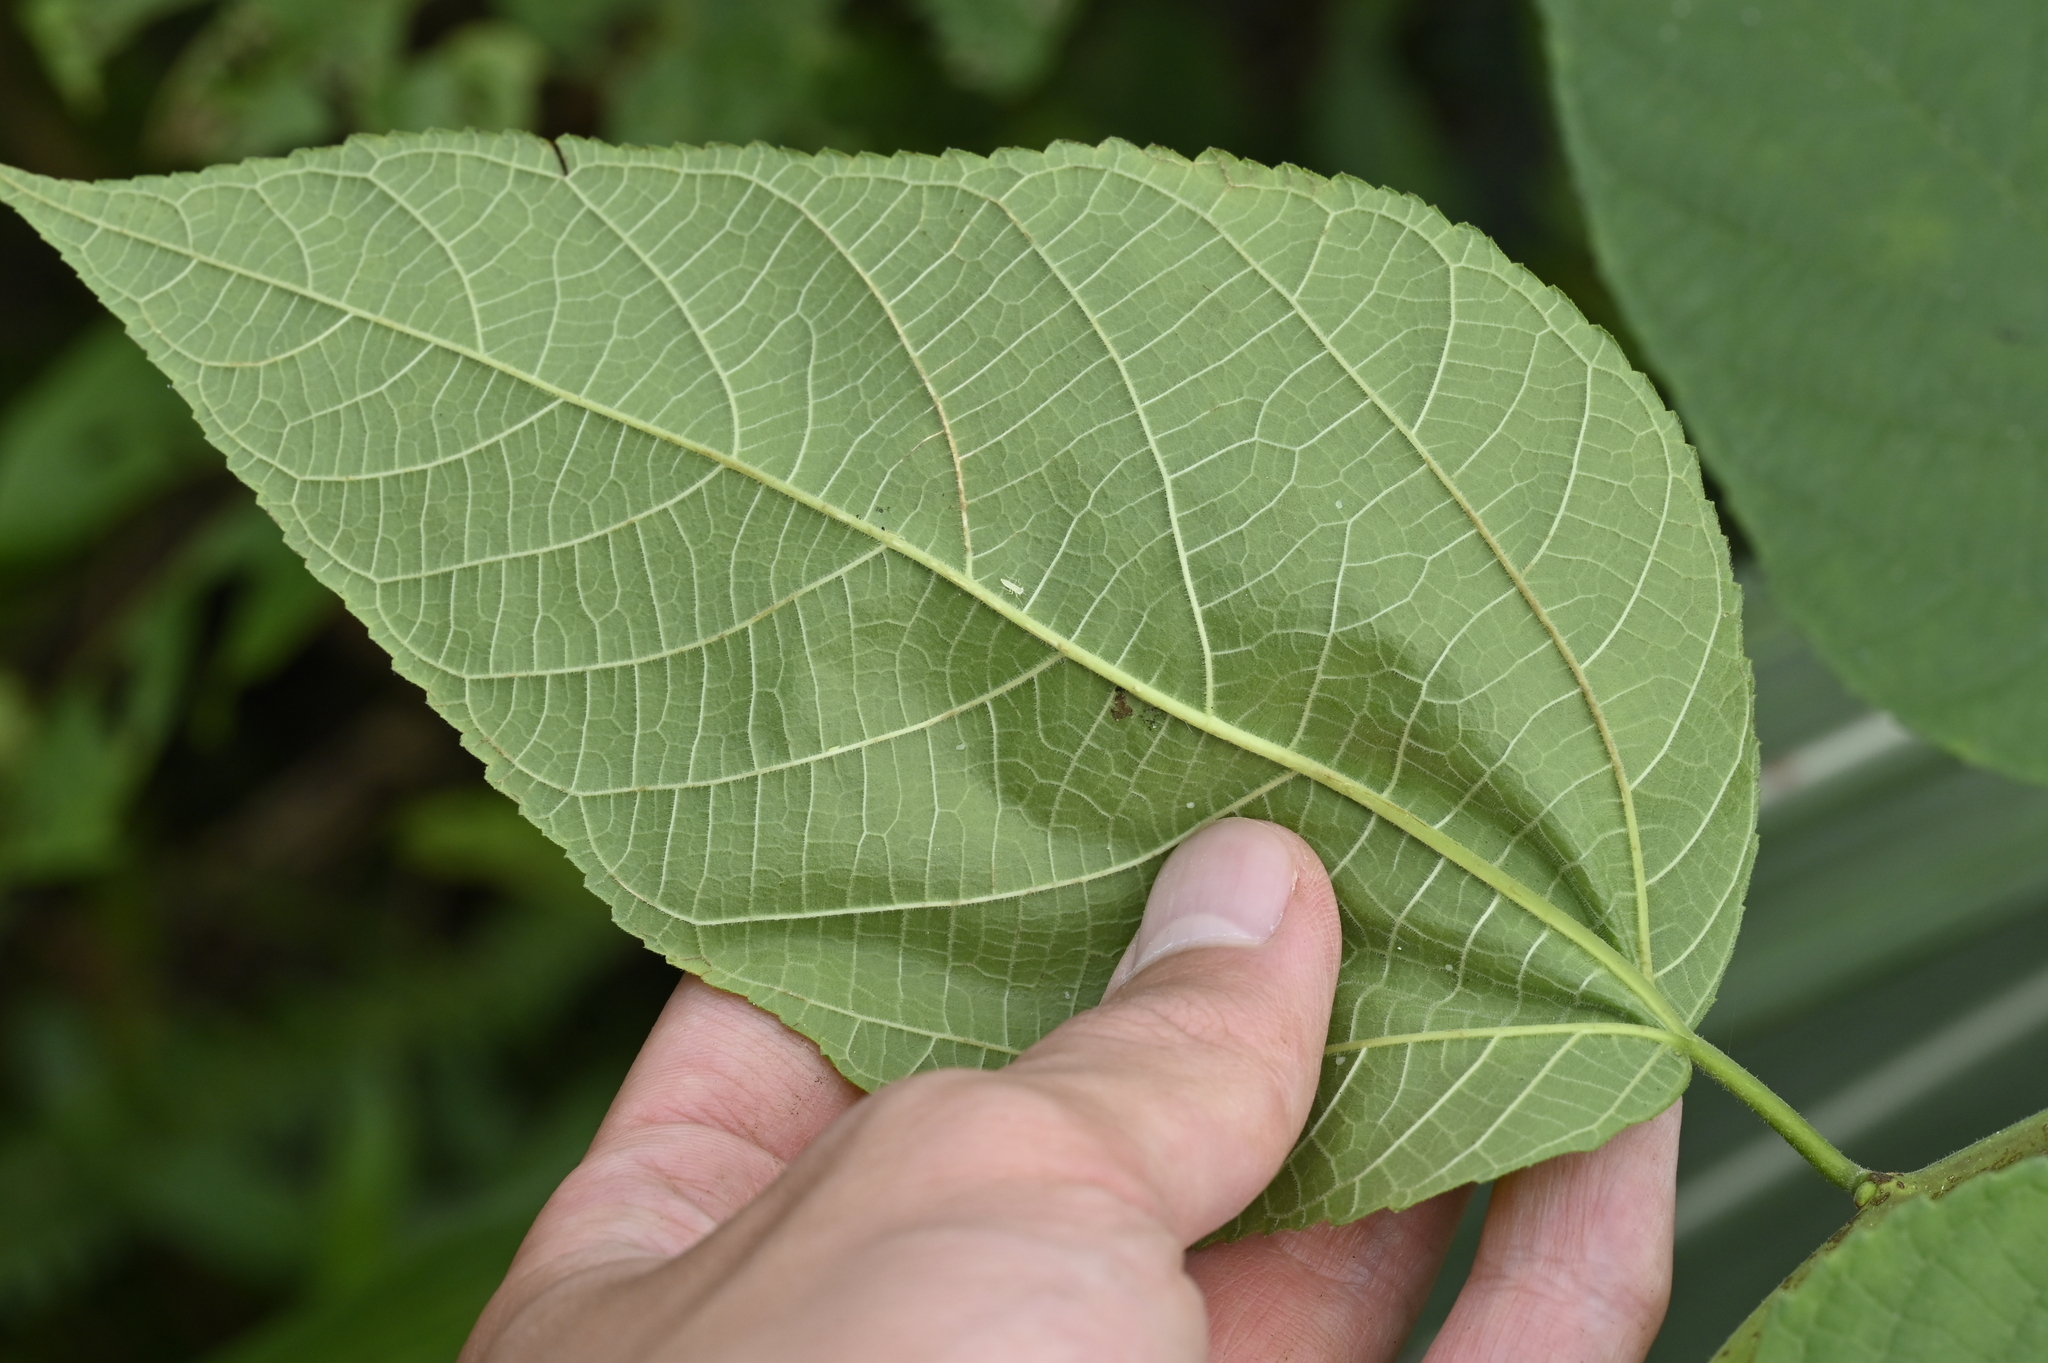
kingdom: Plantae
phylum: Tracheophyta
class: Magnoliopsida
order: Rosales
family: Moraceae
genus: Broussonetia
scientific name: Broussonetia monoica
